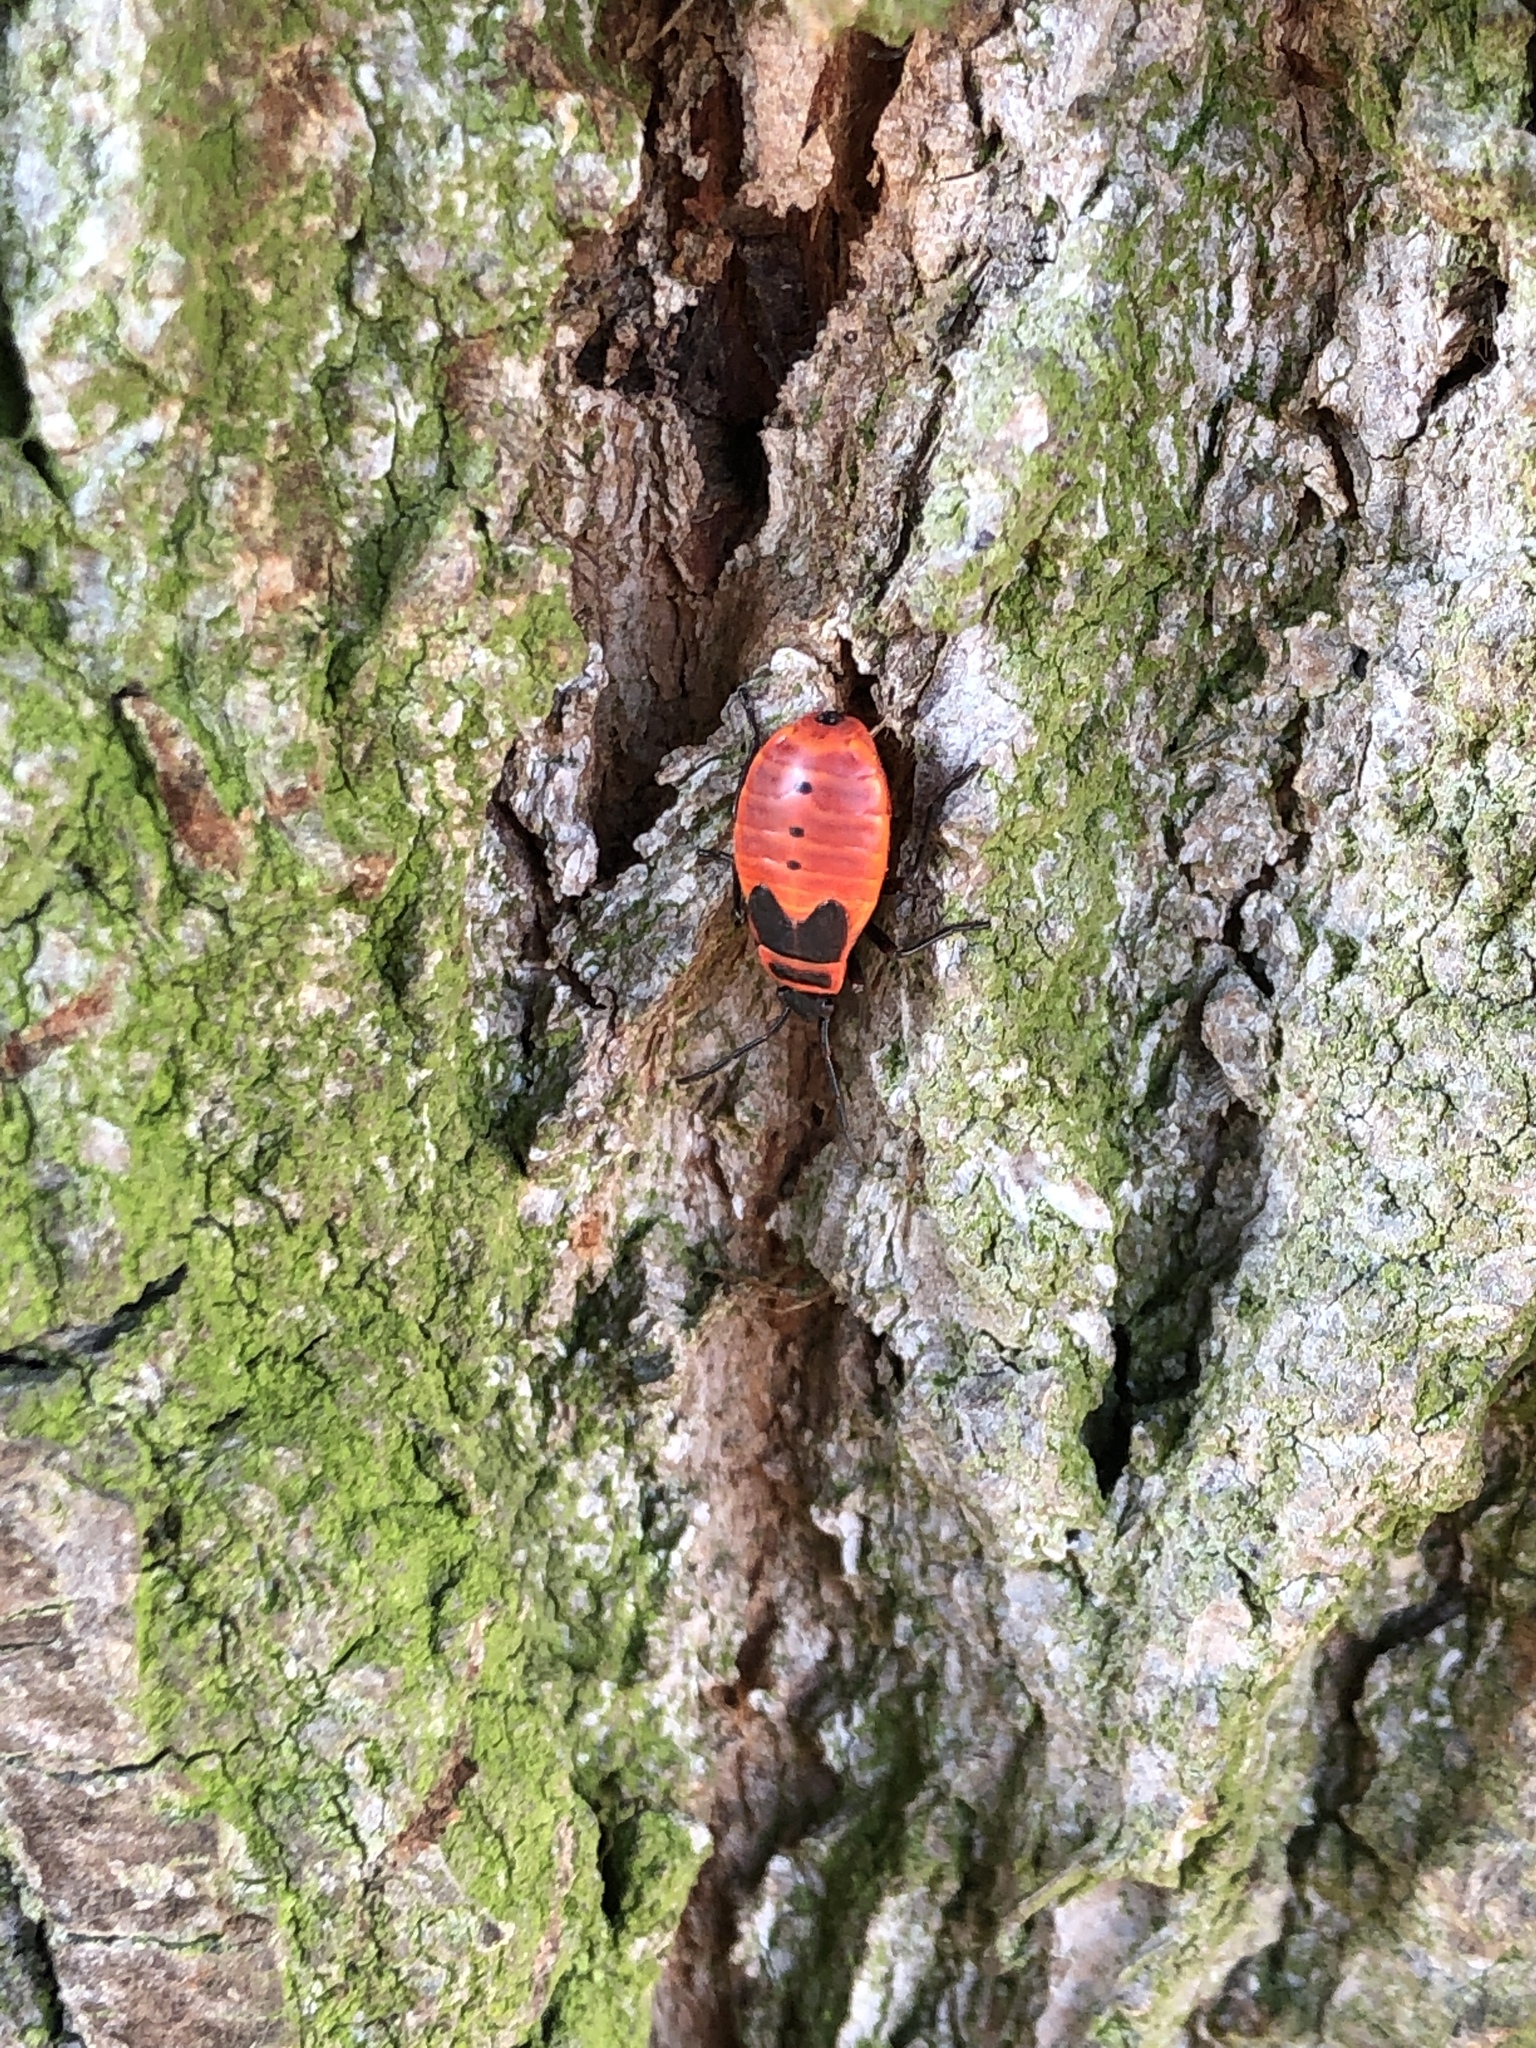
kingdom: Animalia
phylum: Arthropoda
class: Insecta
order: Hemiptera
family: Pyrrhocoridae
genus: Pyrrhocoris
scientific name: Pyrrhocoris apterus
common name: Firebug
